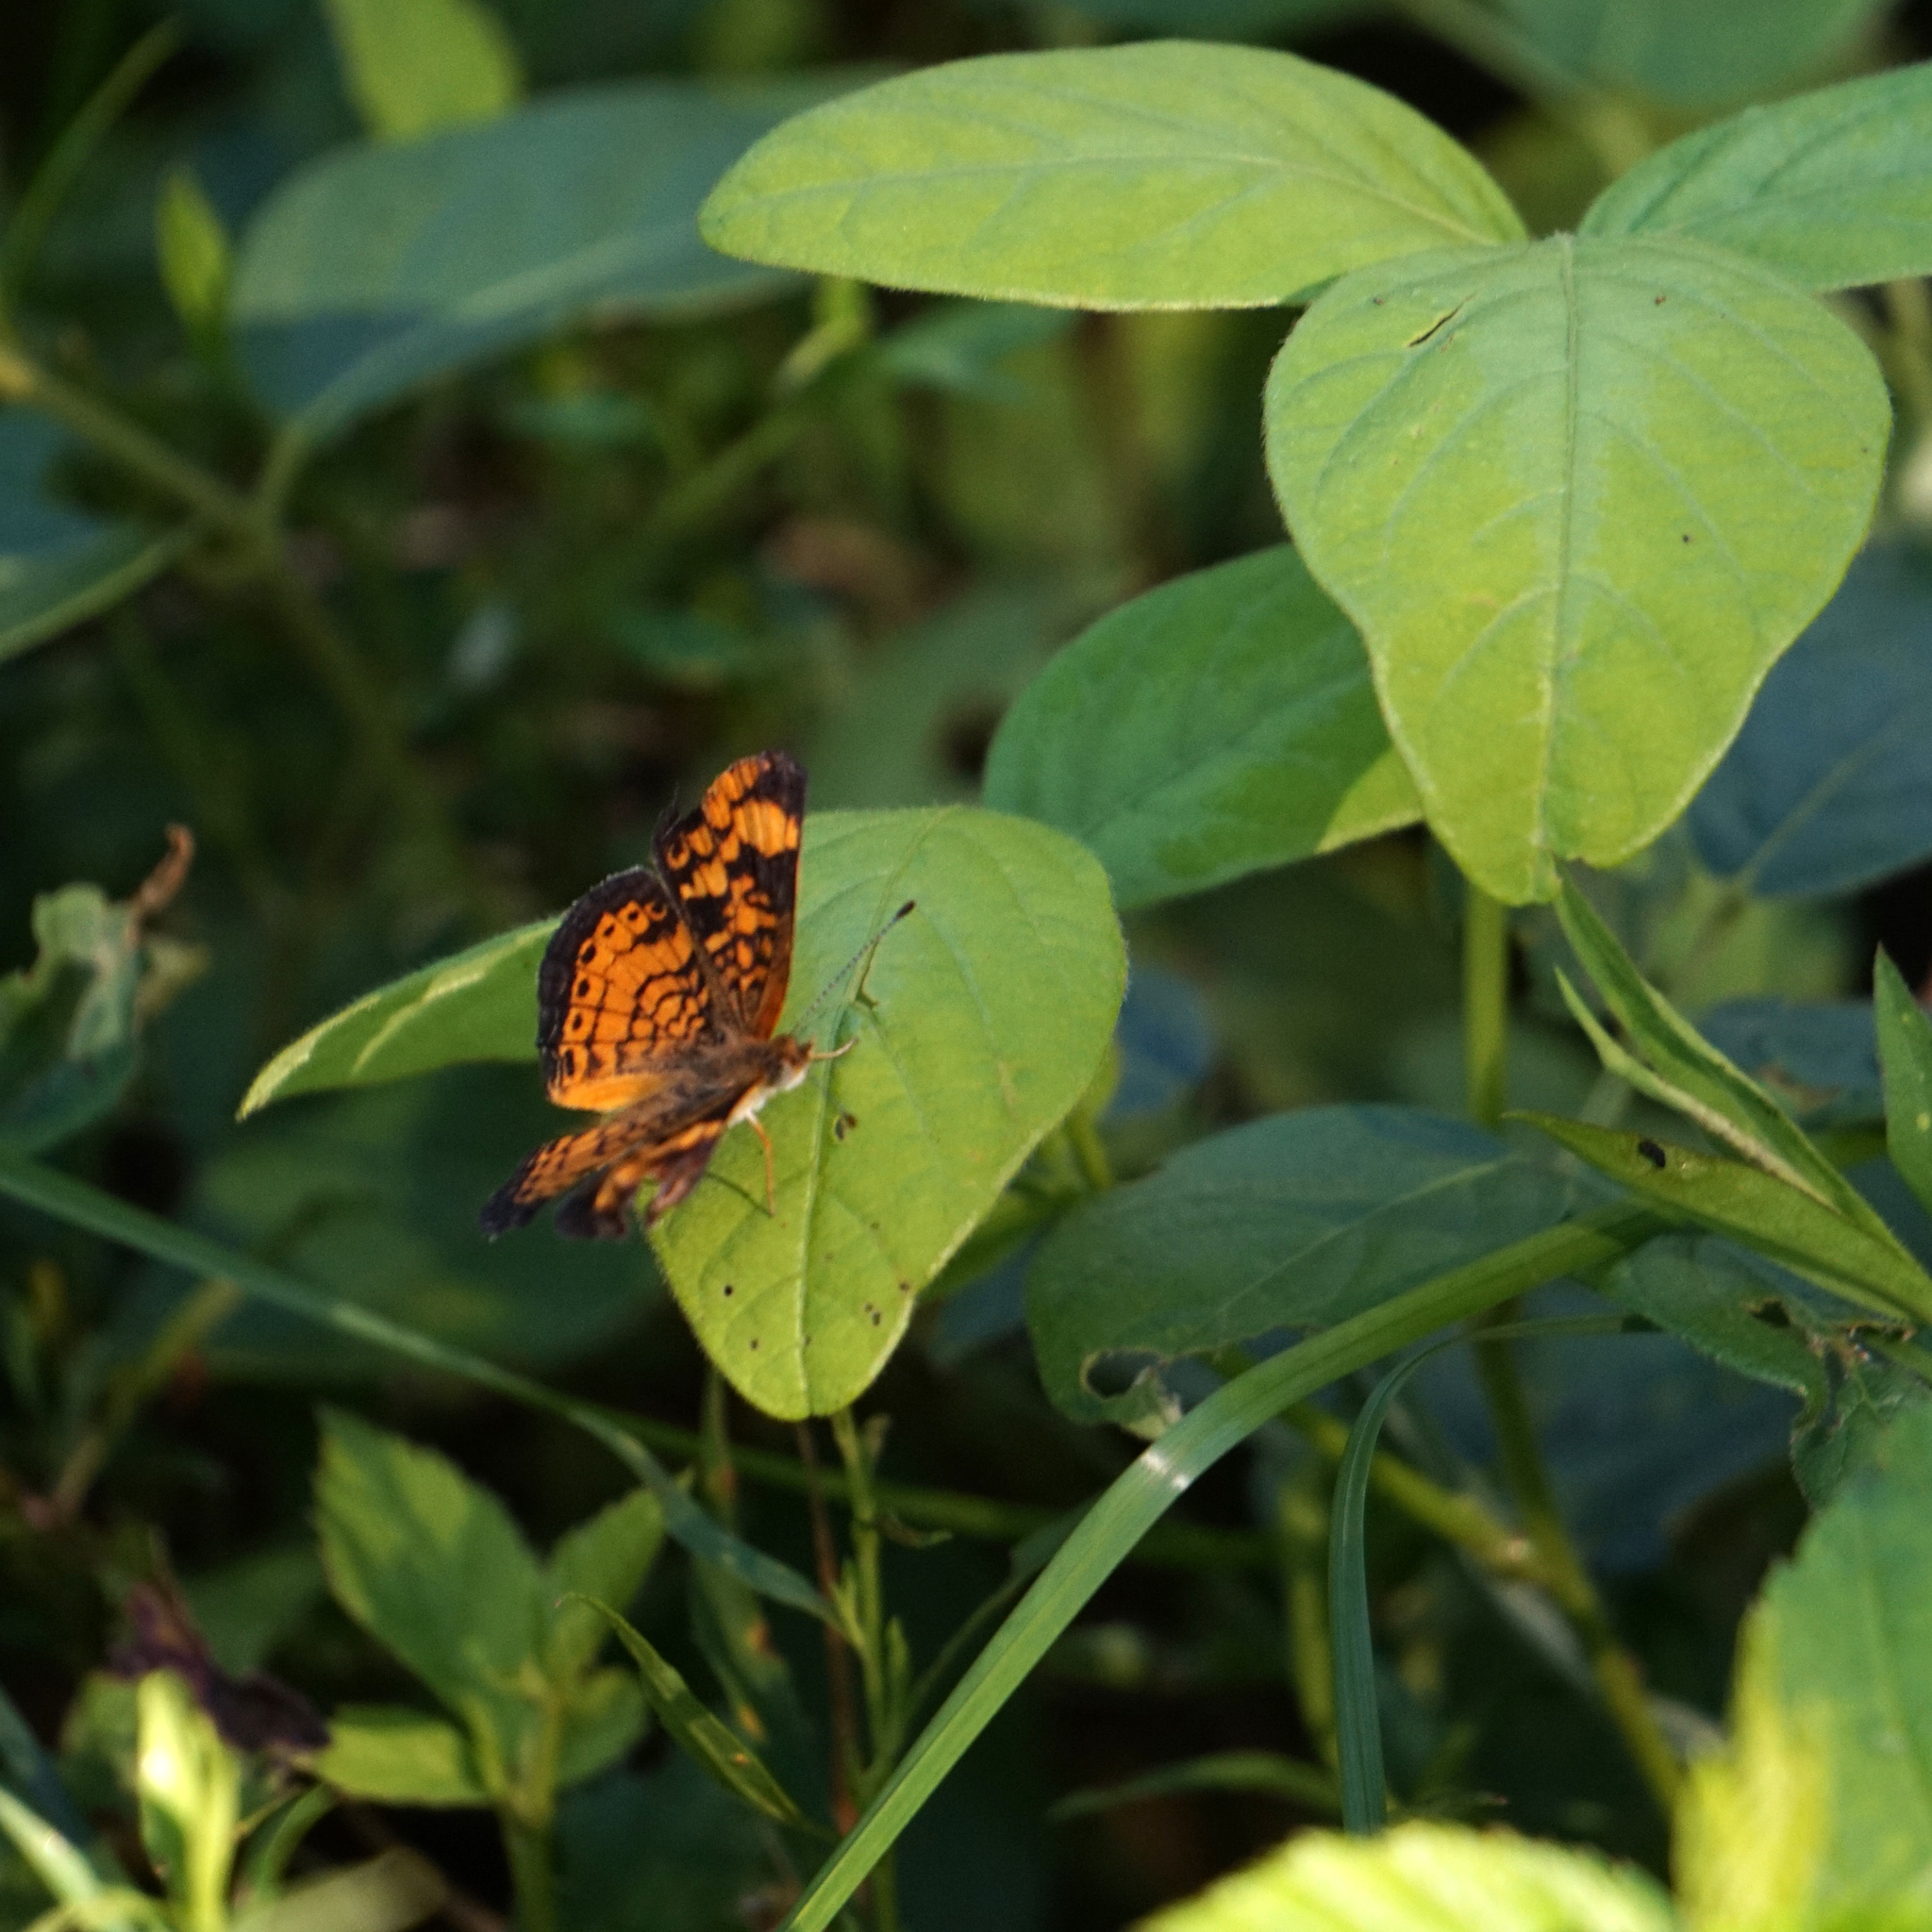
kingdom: Animalia
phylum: Arthropoda
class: Insecta
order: Lepidoptera
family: Nymphalidae
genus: Phyciodes
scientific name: Phyciodes tharos
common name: Pearl crescent
